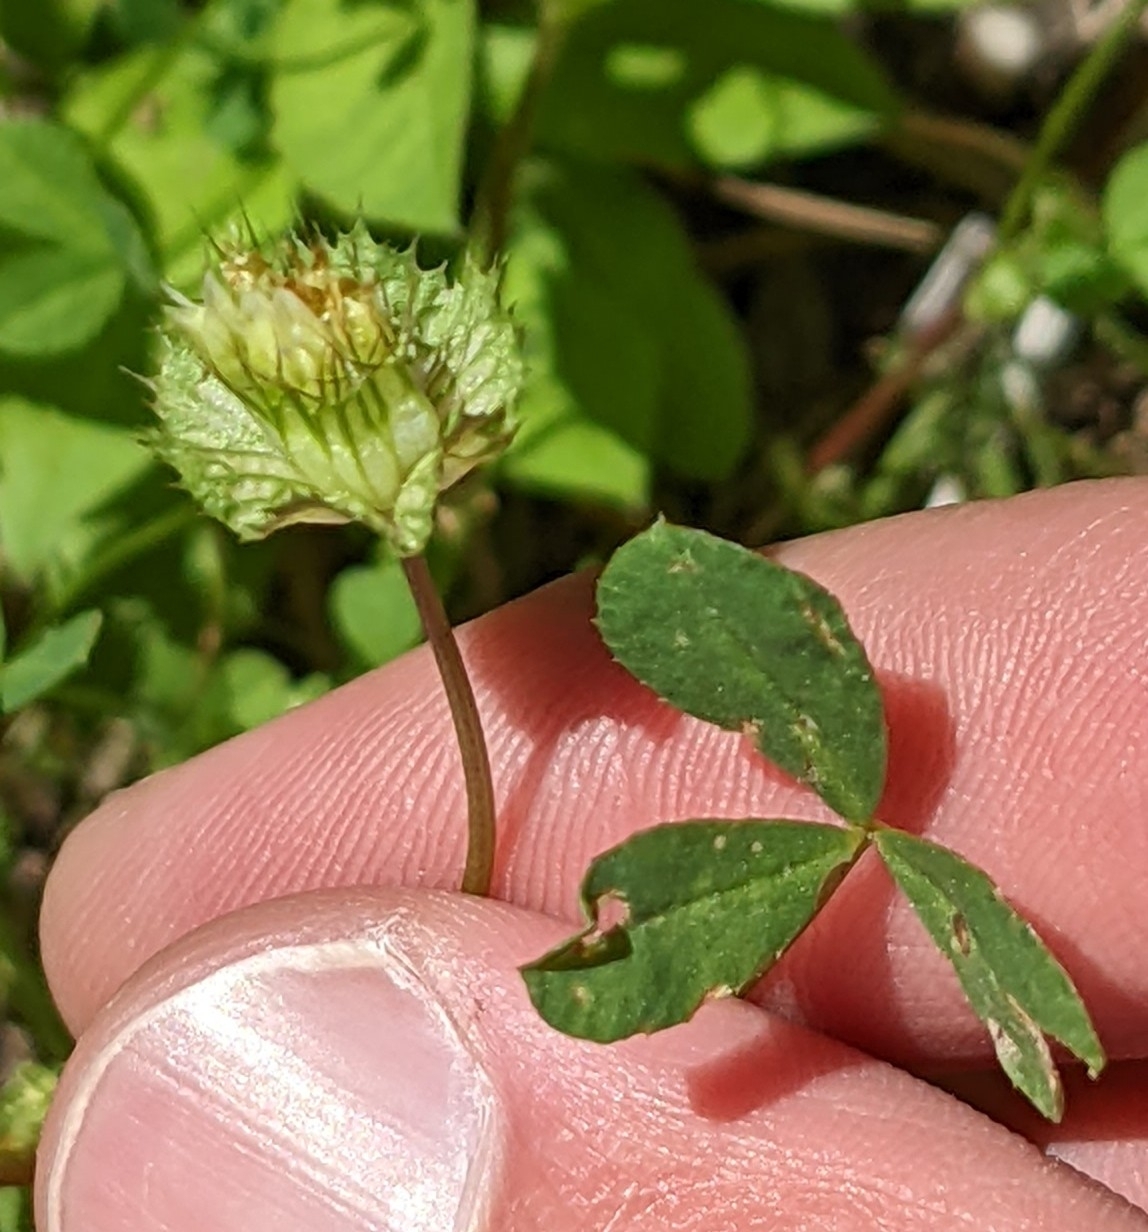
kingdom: Plantae
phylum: Tracheophyta
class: Magnoliopsida
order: Fabales
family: Fabaceae
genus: Trifolium
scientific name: Trifolium cyathiferum
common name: Bowl clover
